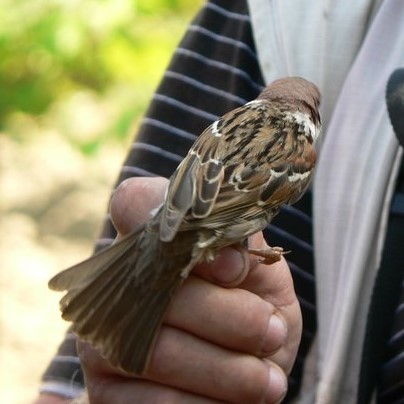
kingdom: Animalia
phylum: Chordata
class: Aves
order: Passeriformes
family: Passeridae
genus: Passer
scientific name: Passer montanus
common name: Eurasian tree sparrow
